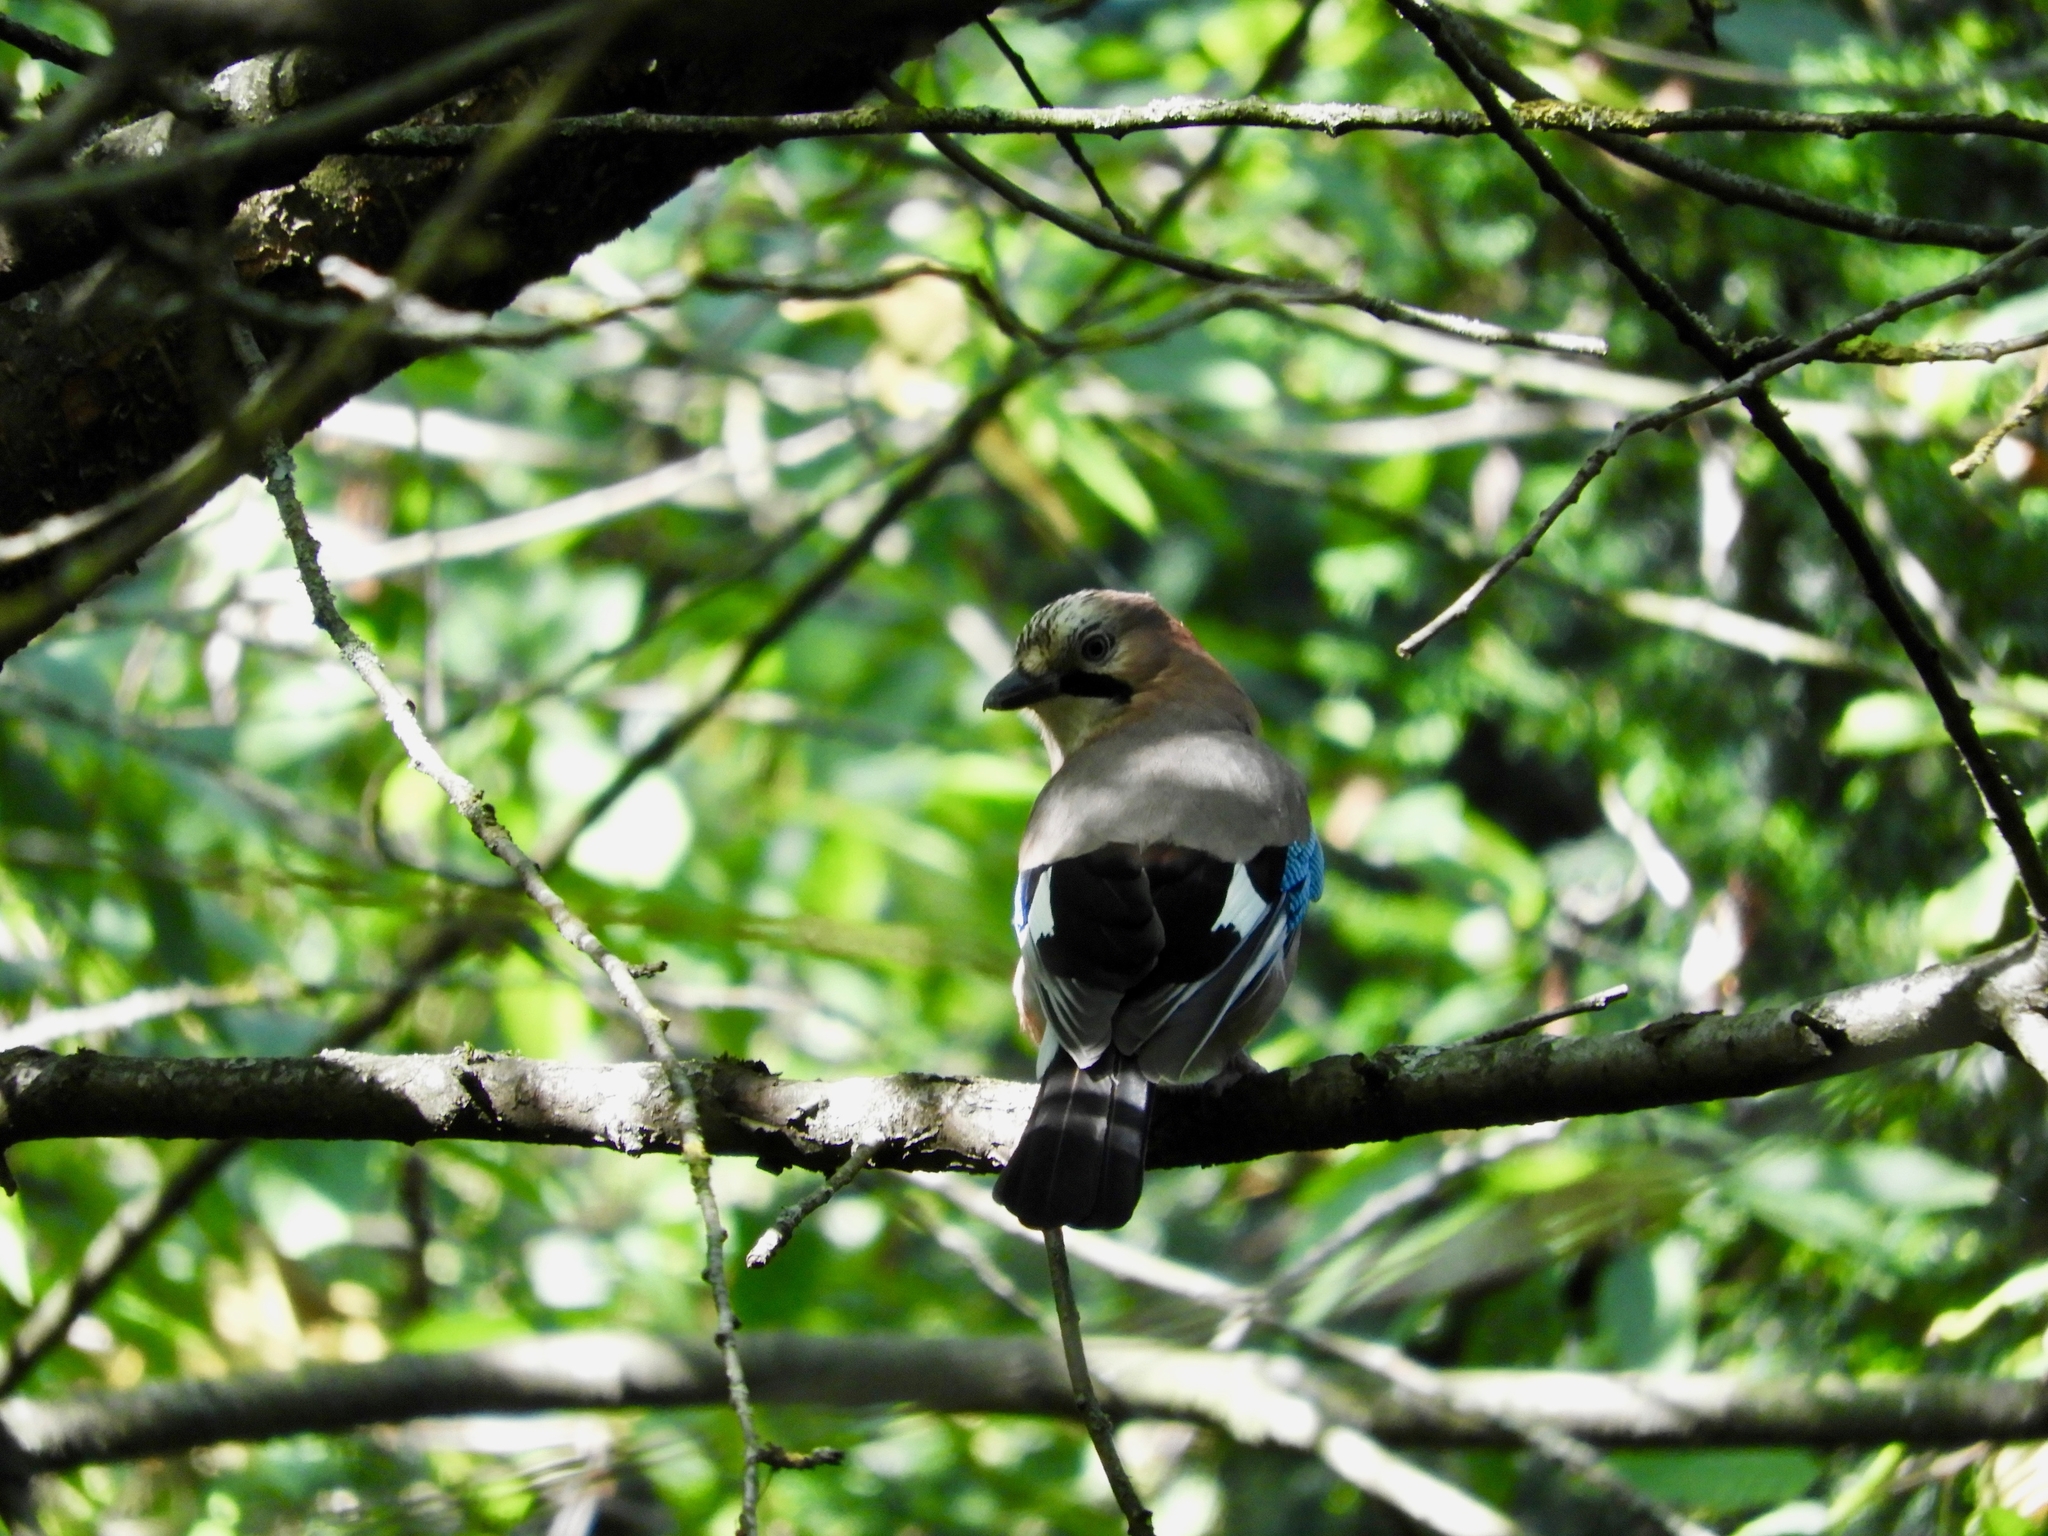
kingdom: Animalia
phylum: Chordata
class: Aves
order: Passeriformes
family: Corvidae
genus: Garrulus
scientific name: Garrulus glandarius
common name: Eurasian jay
